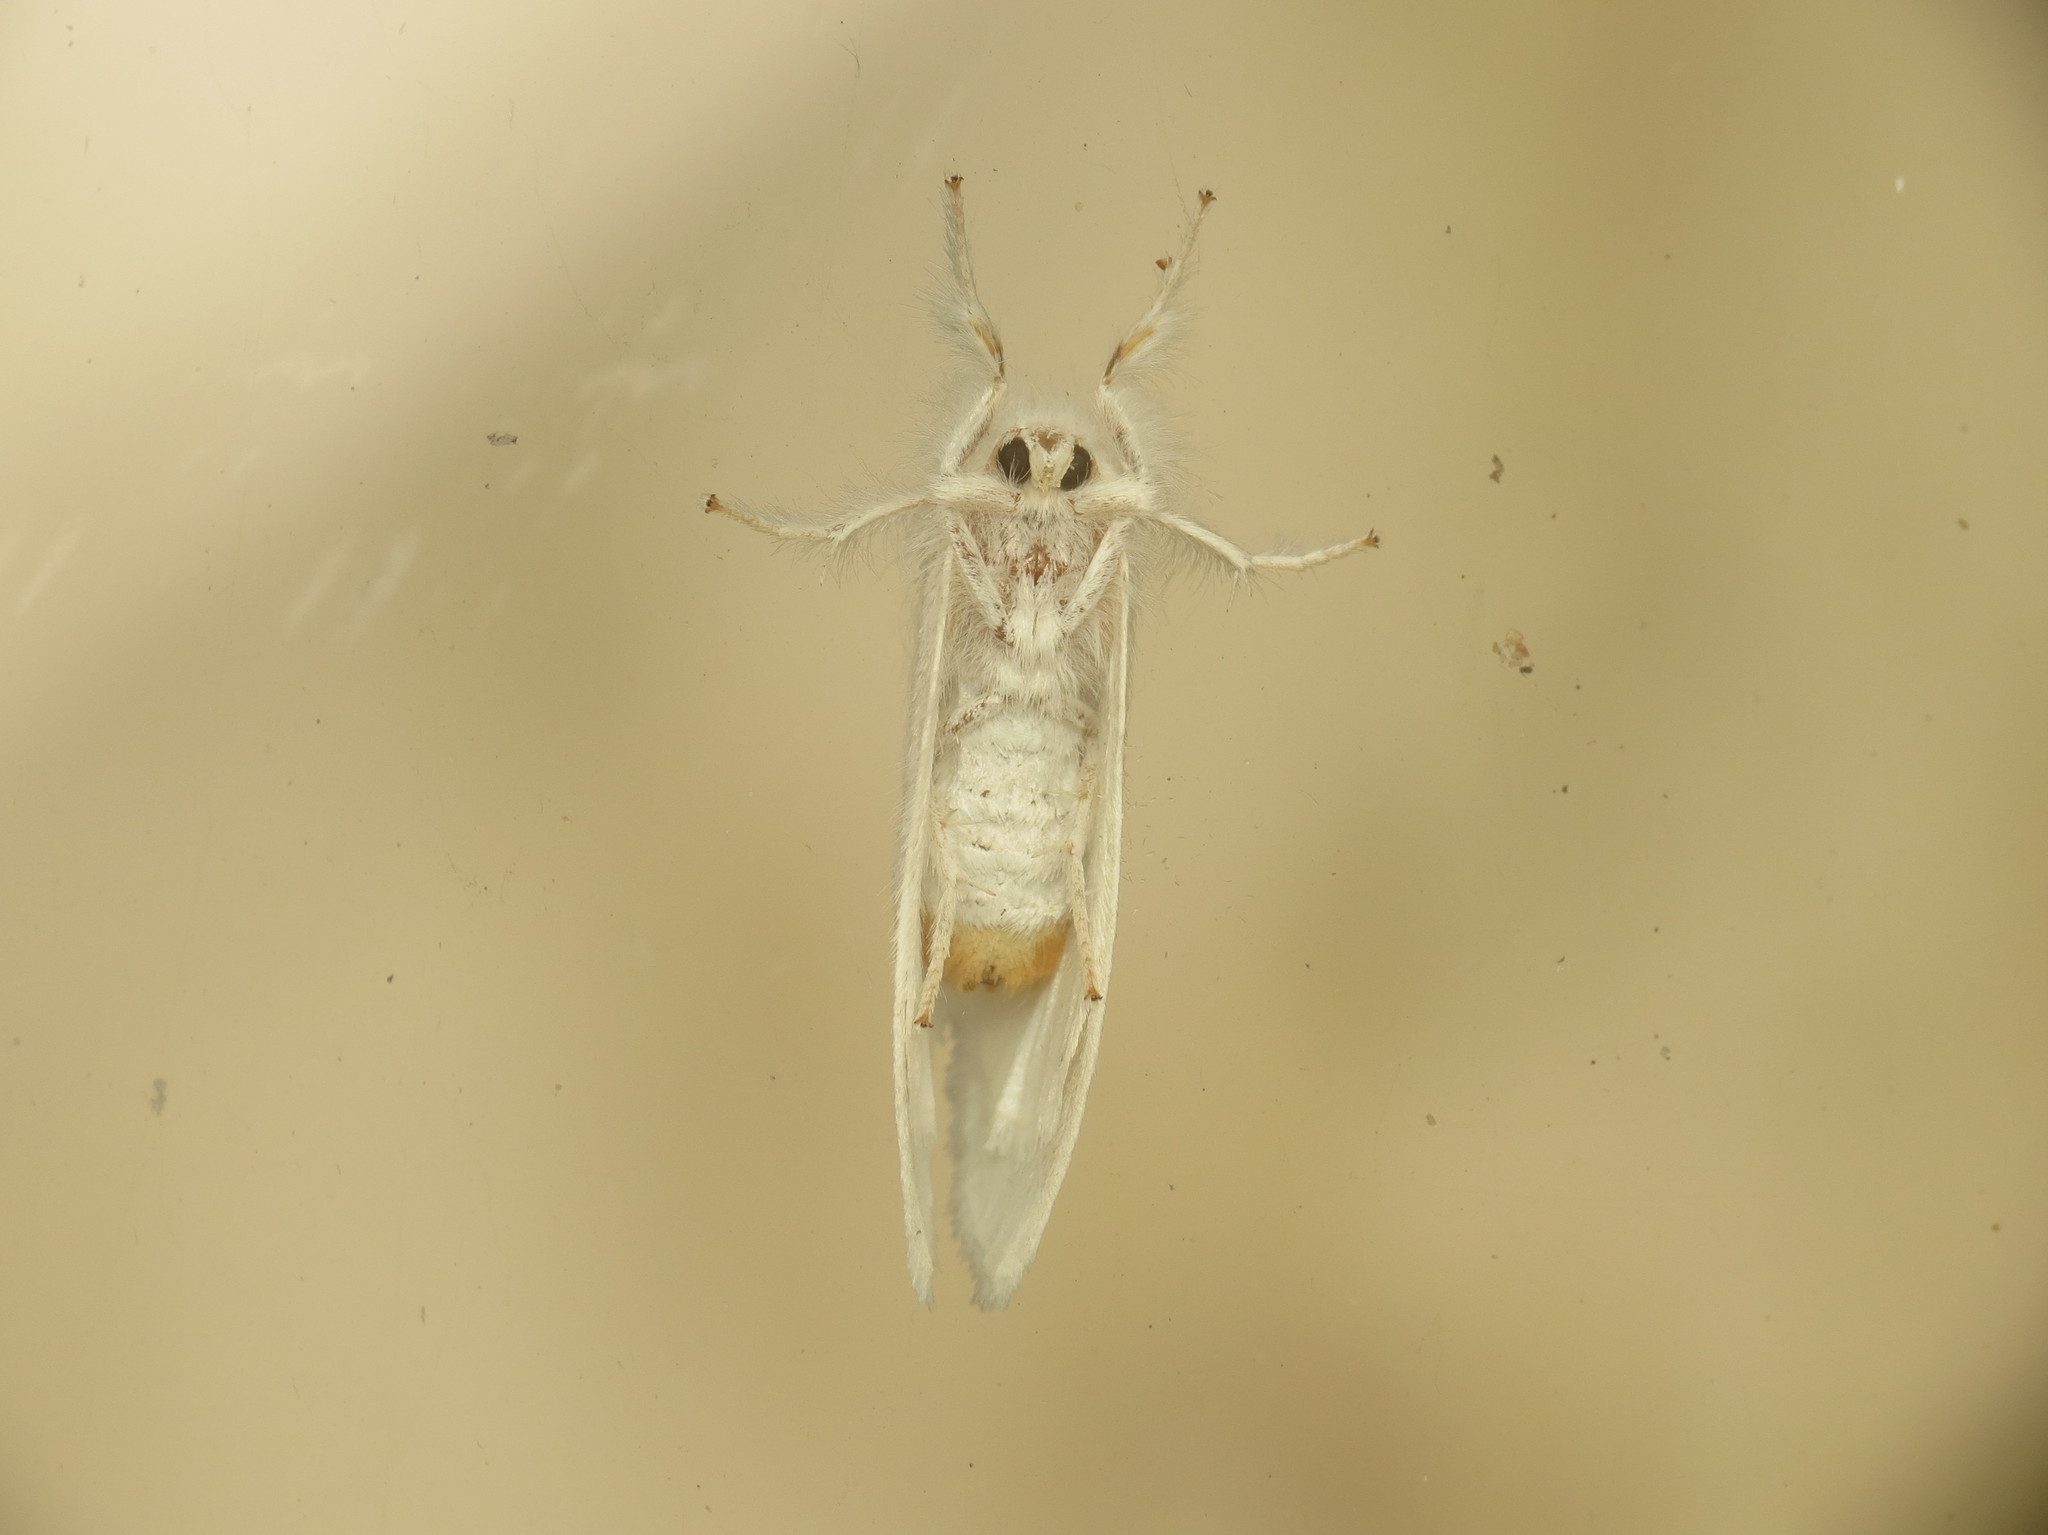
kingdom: Animalia
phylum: Arthropoda
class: Insecta
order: Lepidoptera
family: Erebidae
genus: Sphrageidus
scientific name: Sphrageidus similis
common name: Yellow-tail
